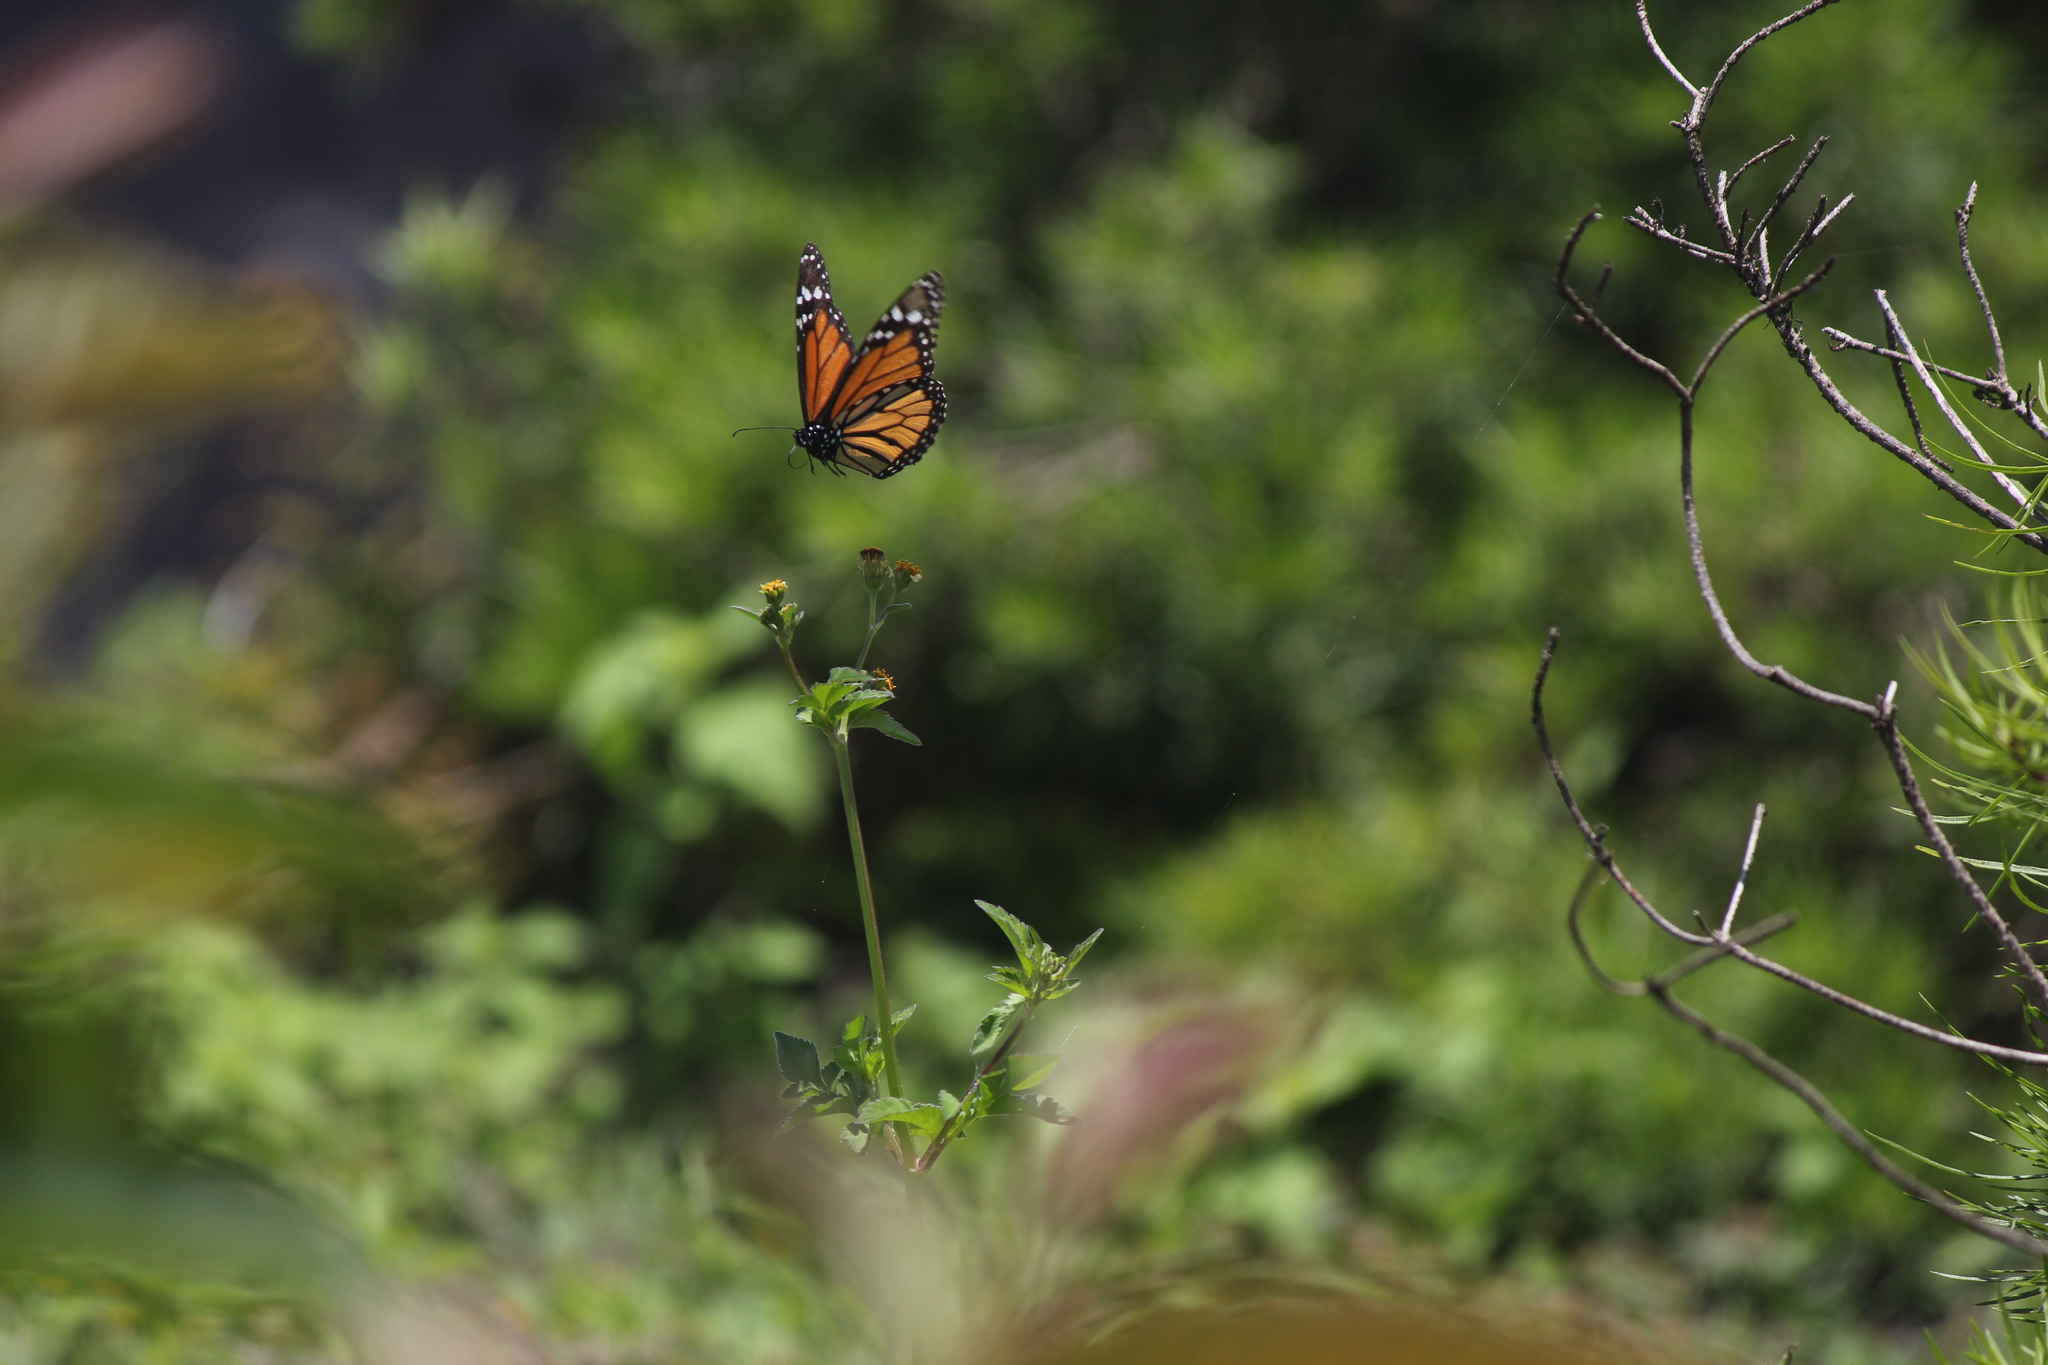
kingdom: Animalia
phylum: Arthropoda
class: Insecta
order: Lepidoptera
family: Nymphalidae
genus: Danaus
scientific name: Danaus plexippus
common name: Monarch
